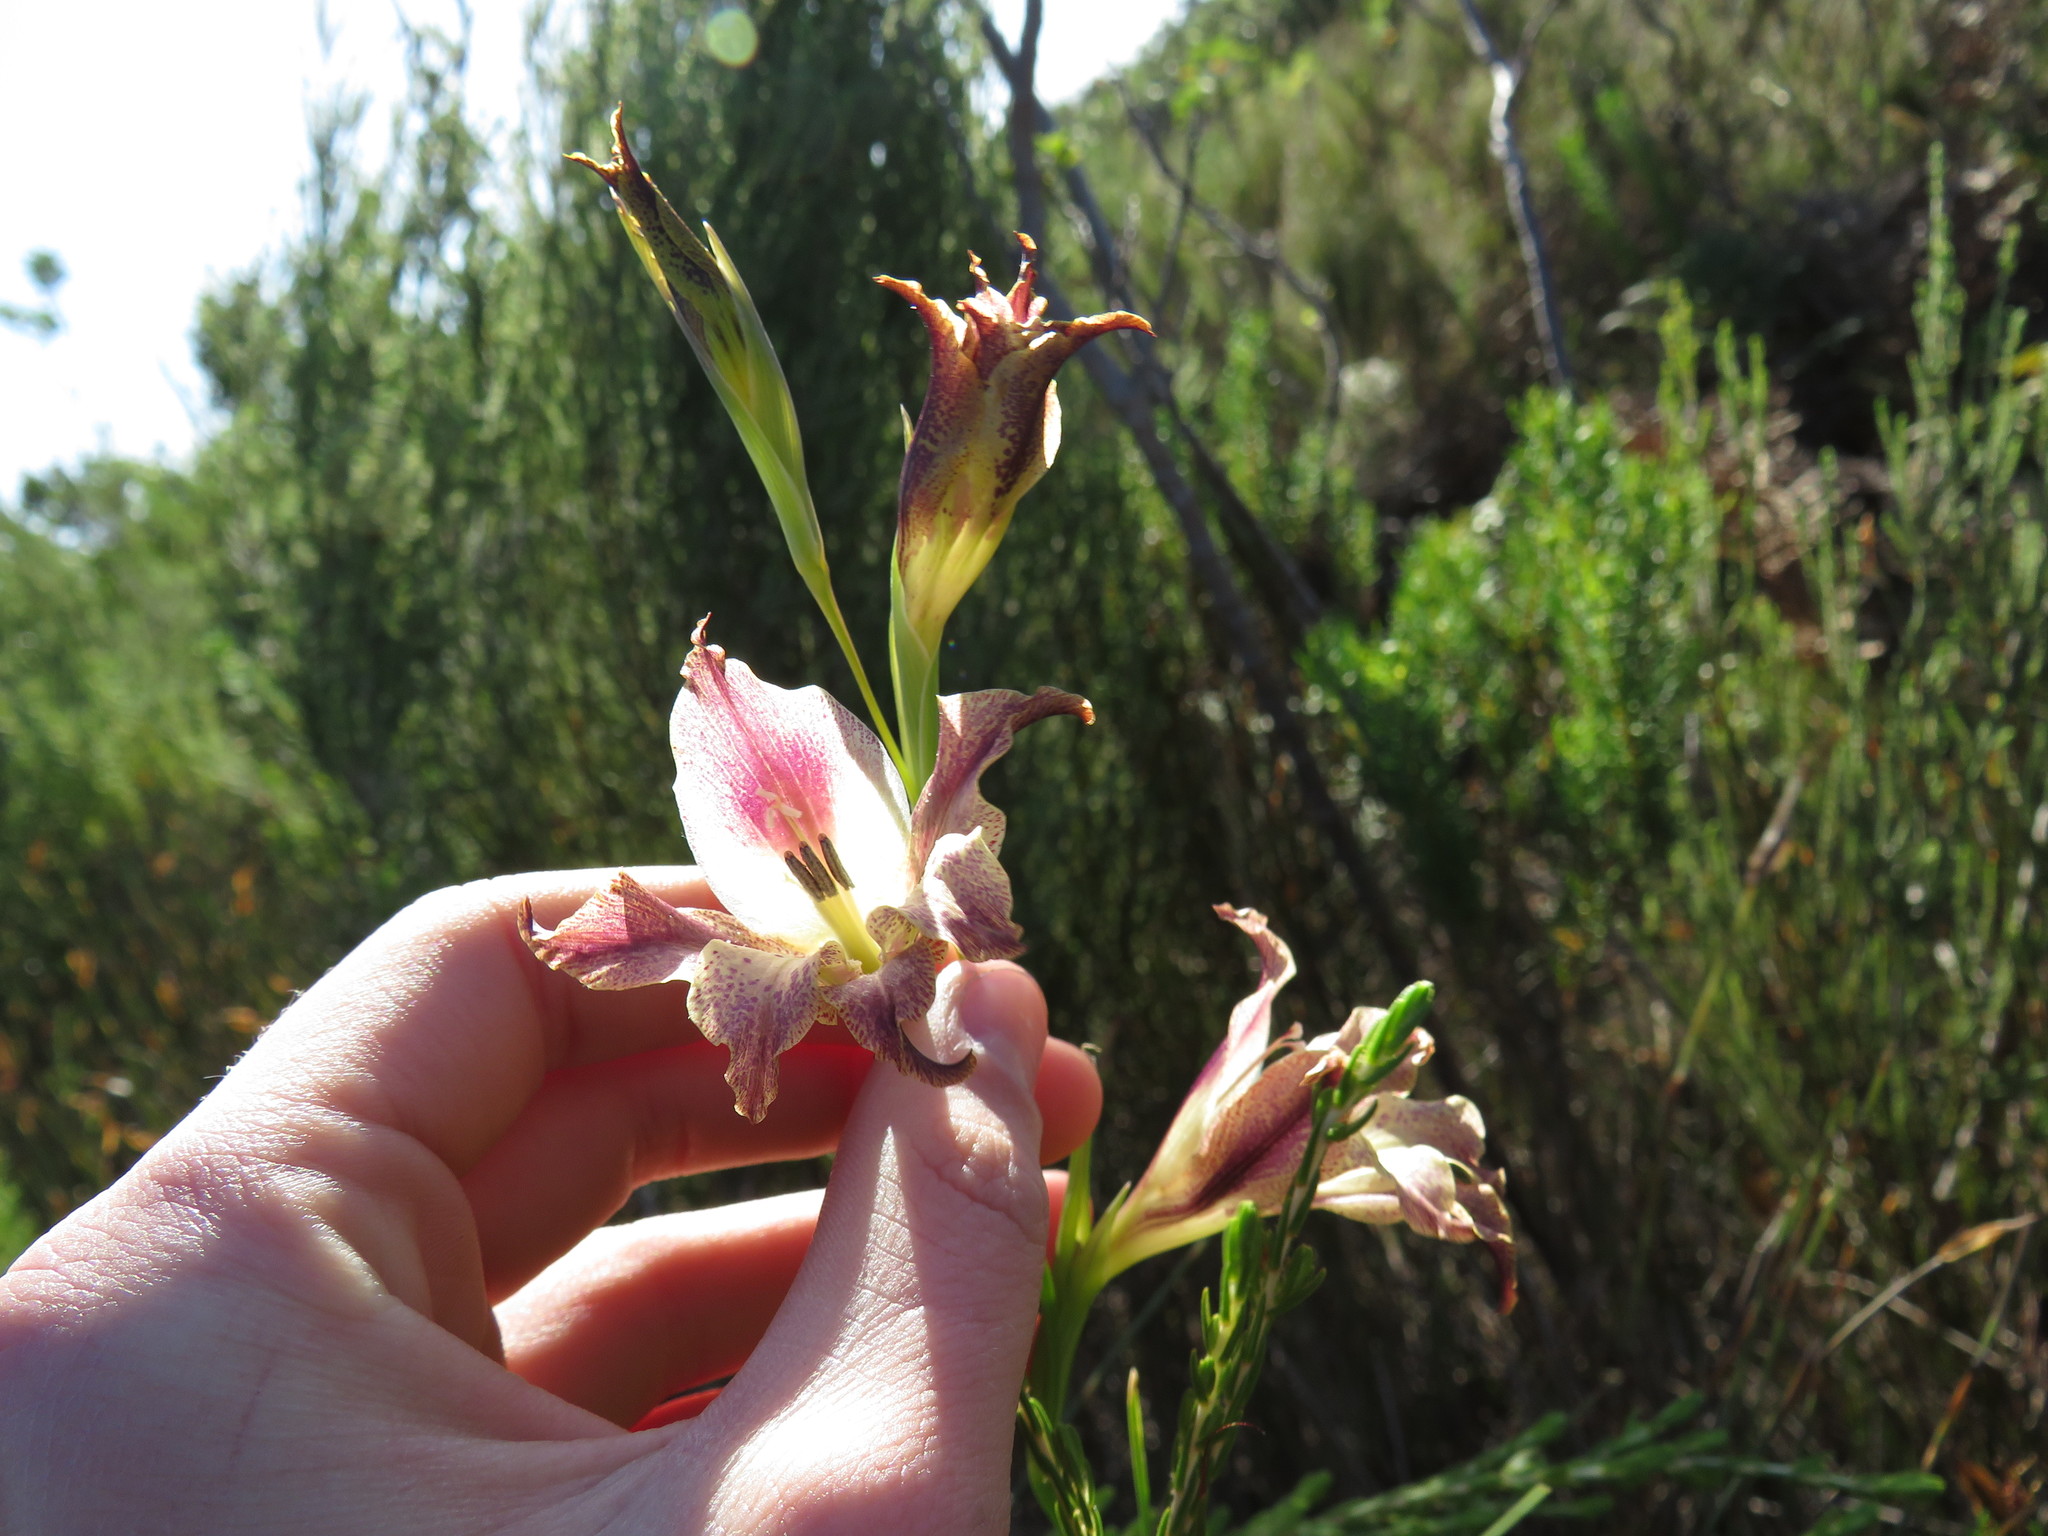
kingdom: Plantae
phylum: Tracheophyta
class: Liliopsida
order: Asparagales
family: Iridaceae
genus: Gladiolus
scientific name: Gladiolus maculatus
